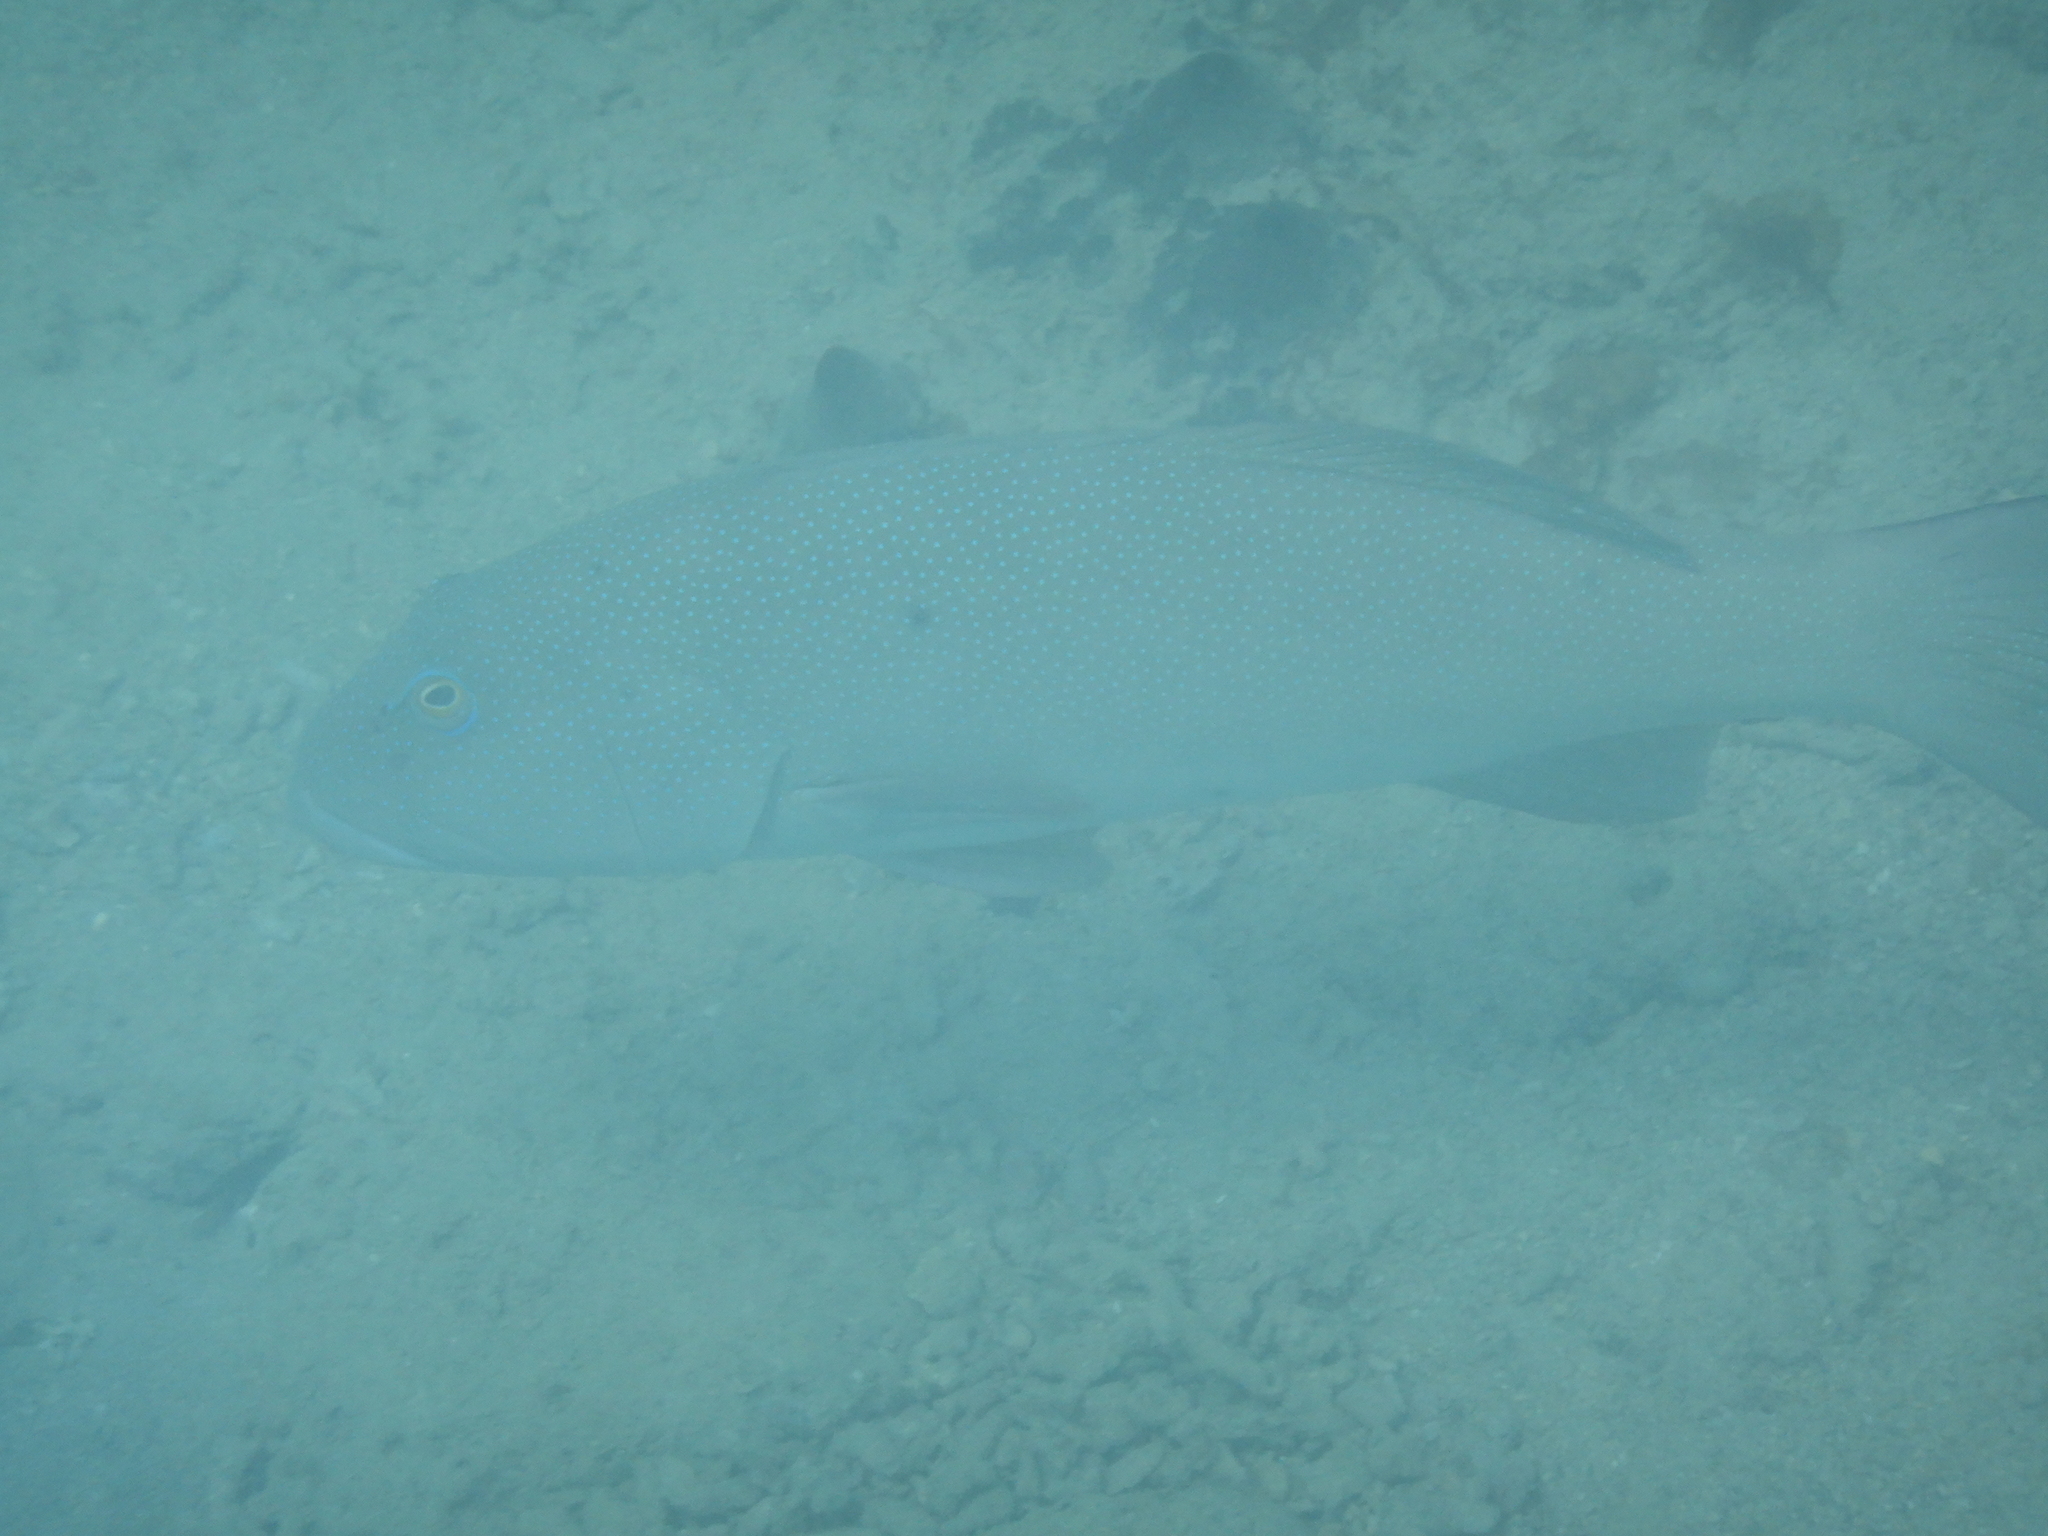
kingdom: Animalia
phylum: Chordata
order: Perciformes
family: Serranidae
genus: Plectropomus
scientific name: Plectropomus leopardus
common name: Coral trout
